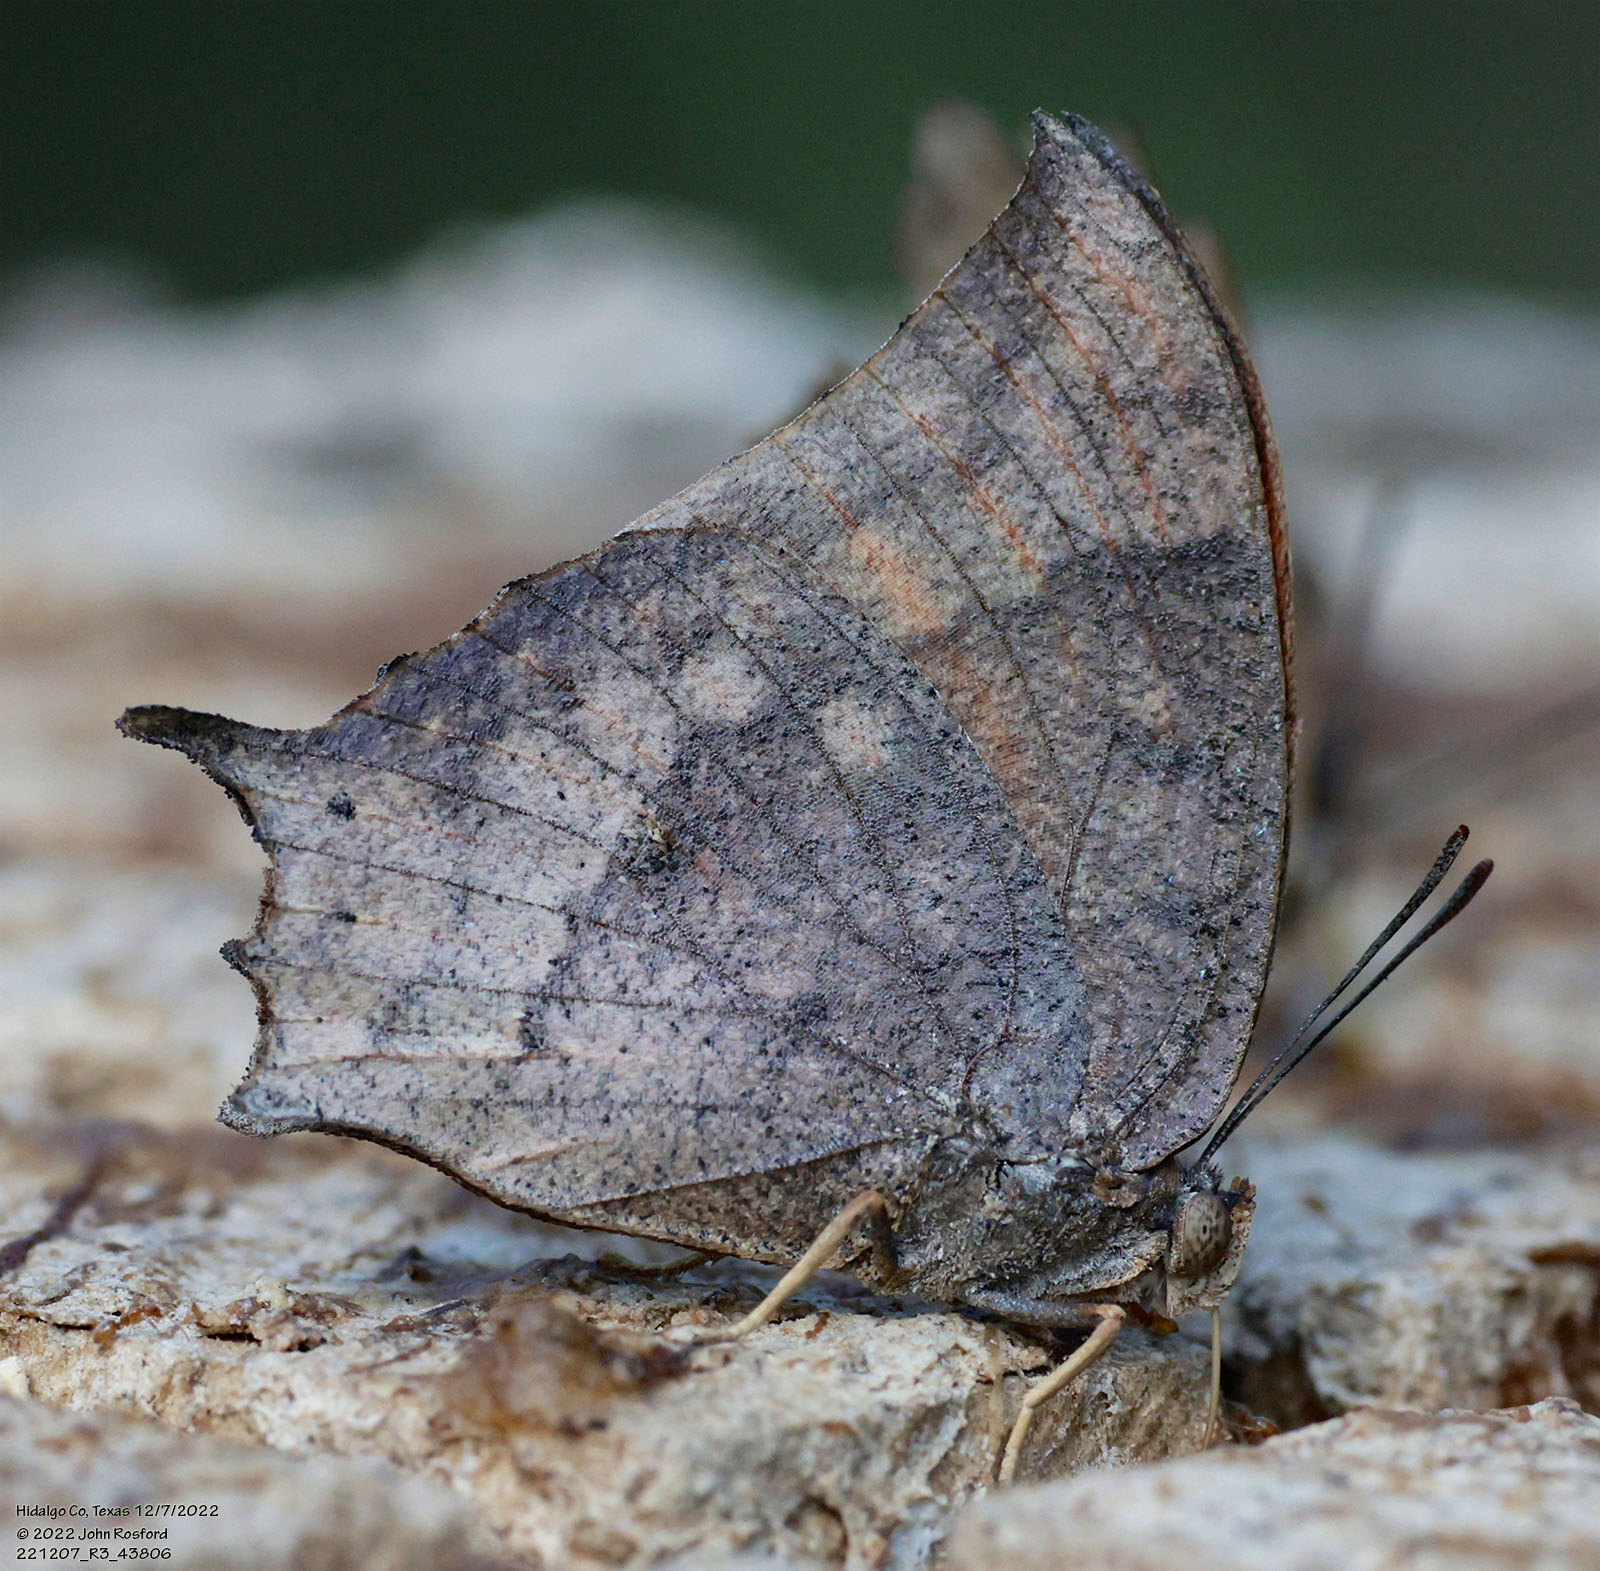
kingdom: Animalia
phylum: Arthropoda
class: Insecta
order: Lepidoptera
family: Nymphalidae
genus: Anaea
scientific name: Anaea aidea
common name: Tropical leafwing
